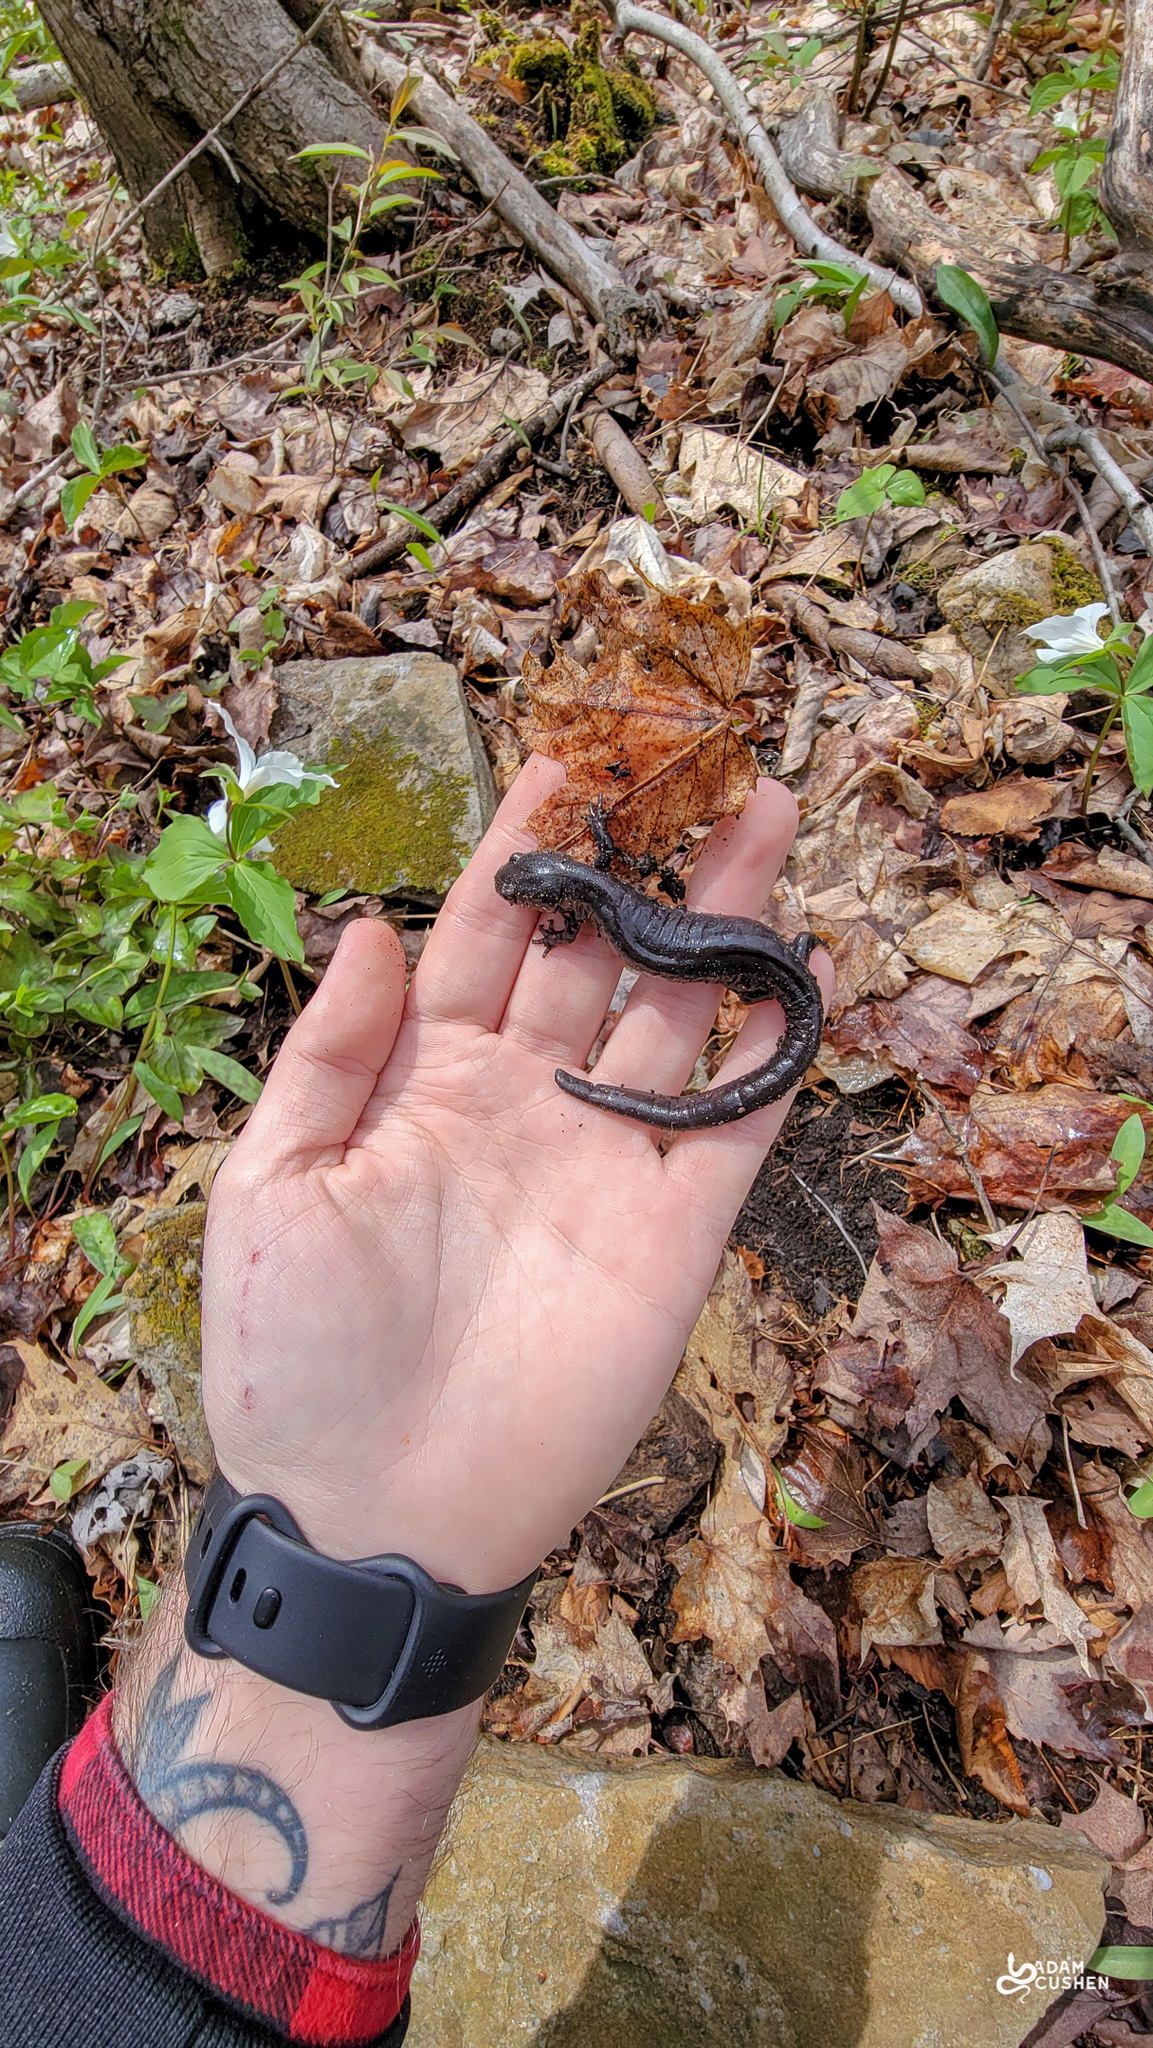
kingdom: Animalia
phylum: Chordata
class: Amphibia
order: Caudata
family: Ambystomatidae
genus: Ambystoma
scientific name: Ambystoma laterale
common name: Blue-spotted salamander
